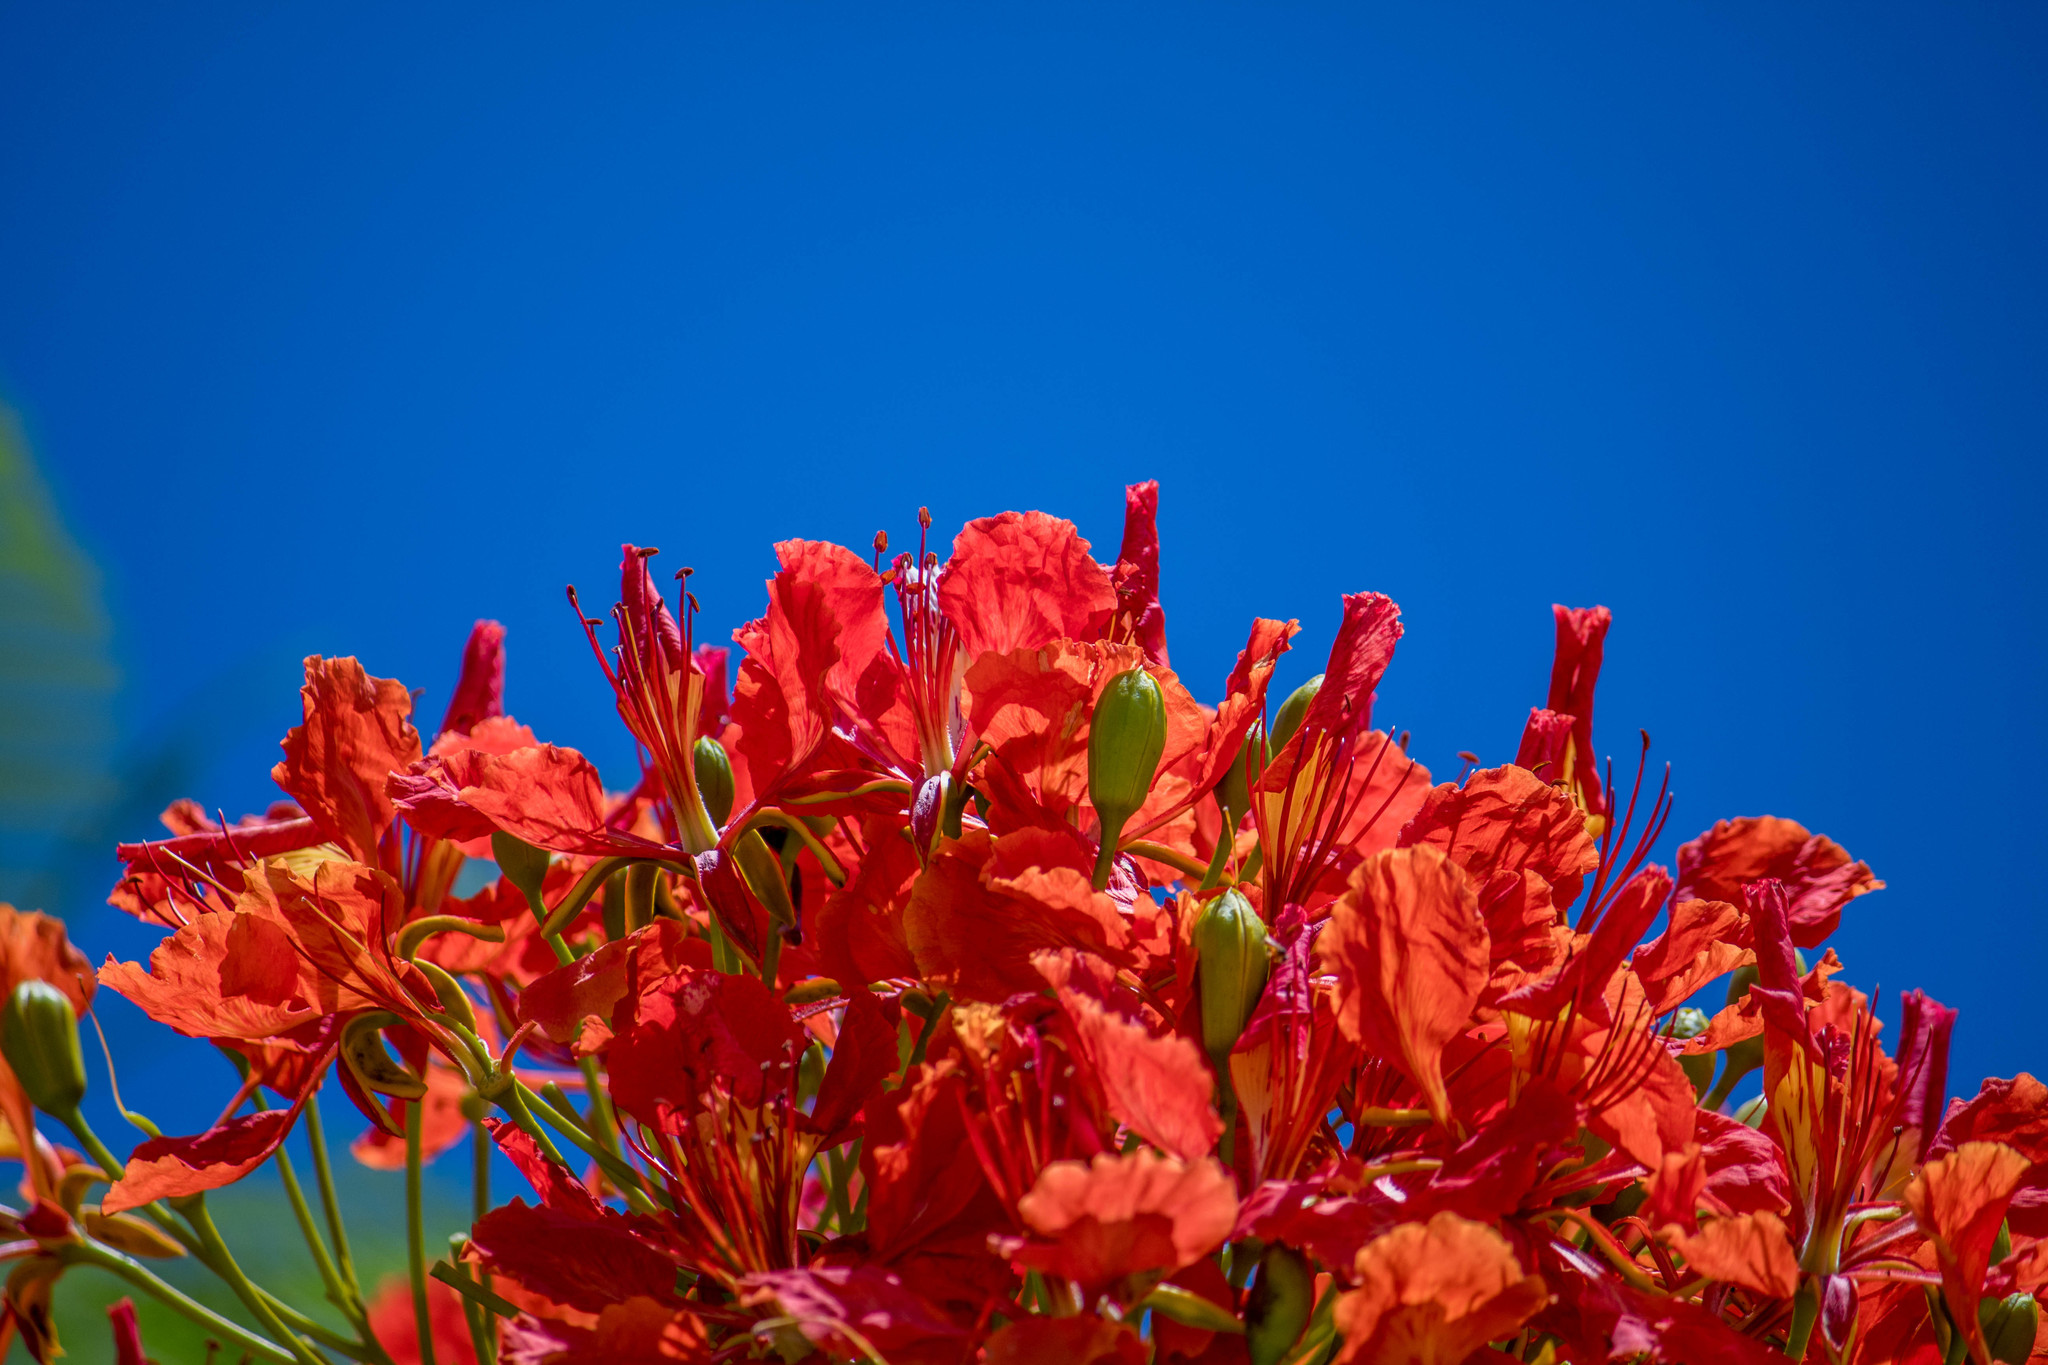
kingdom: Plantae
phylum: Tracheophyta
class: Magnoliopsida
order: Fabales
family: Fabaceae
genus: Delonix
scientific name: Delonix regia
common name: Royal poinciana
